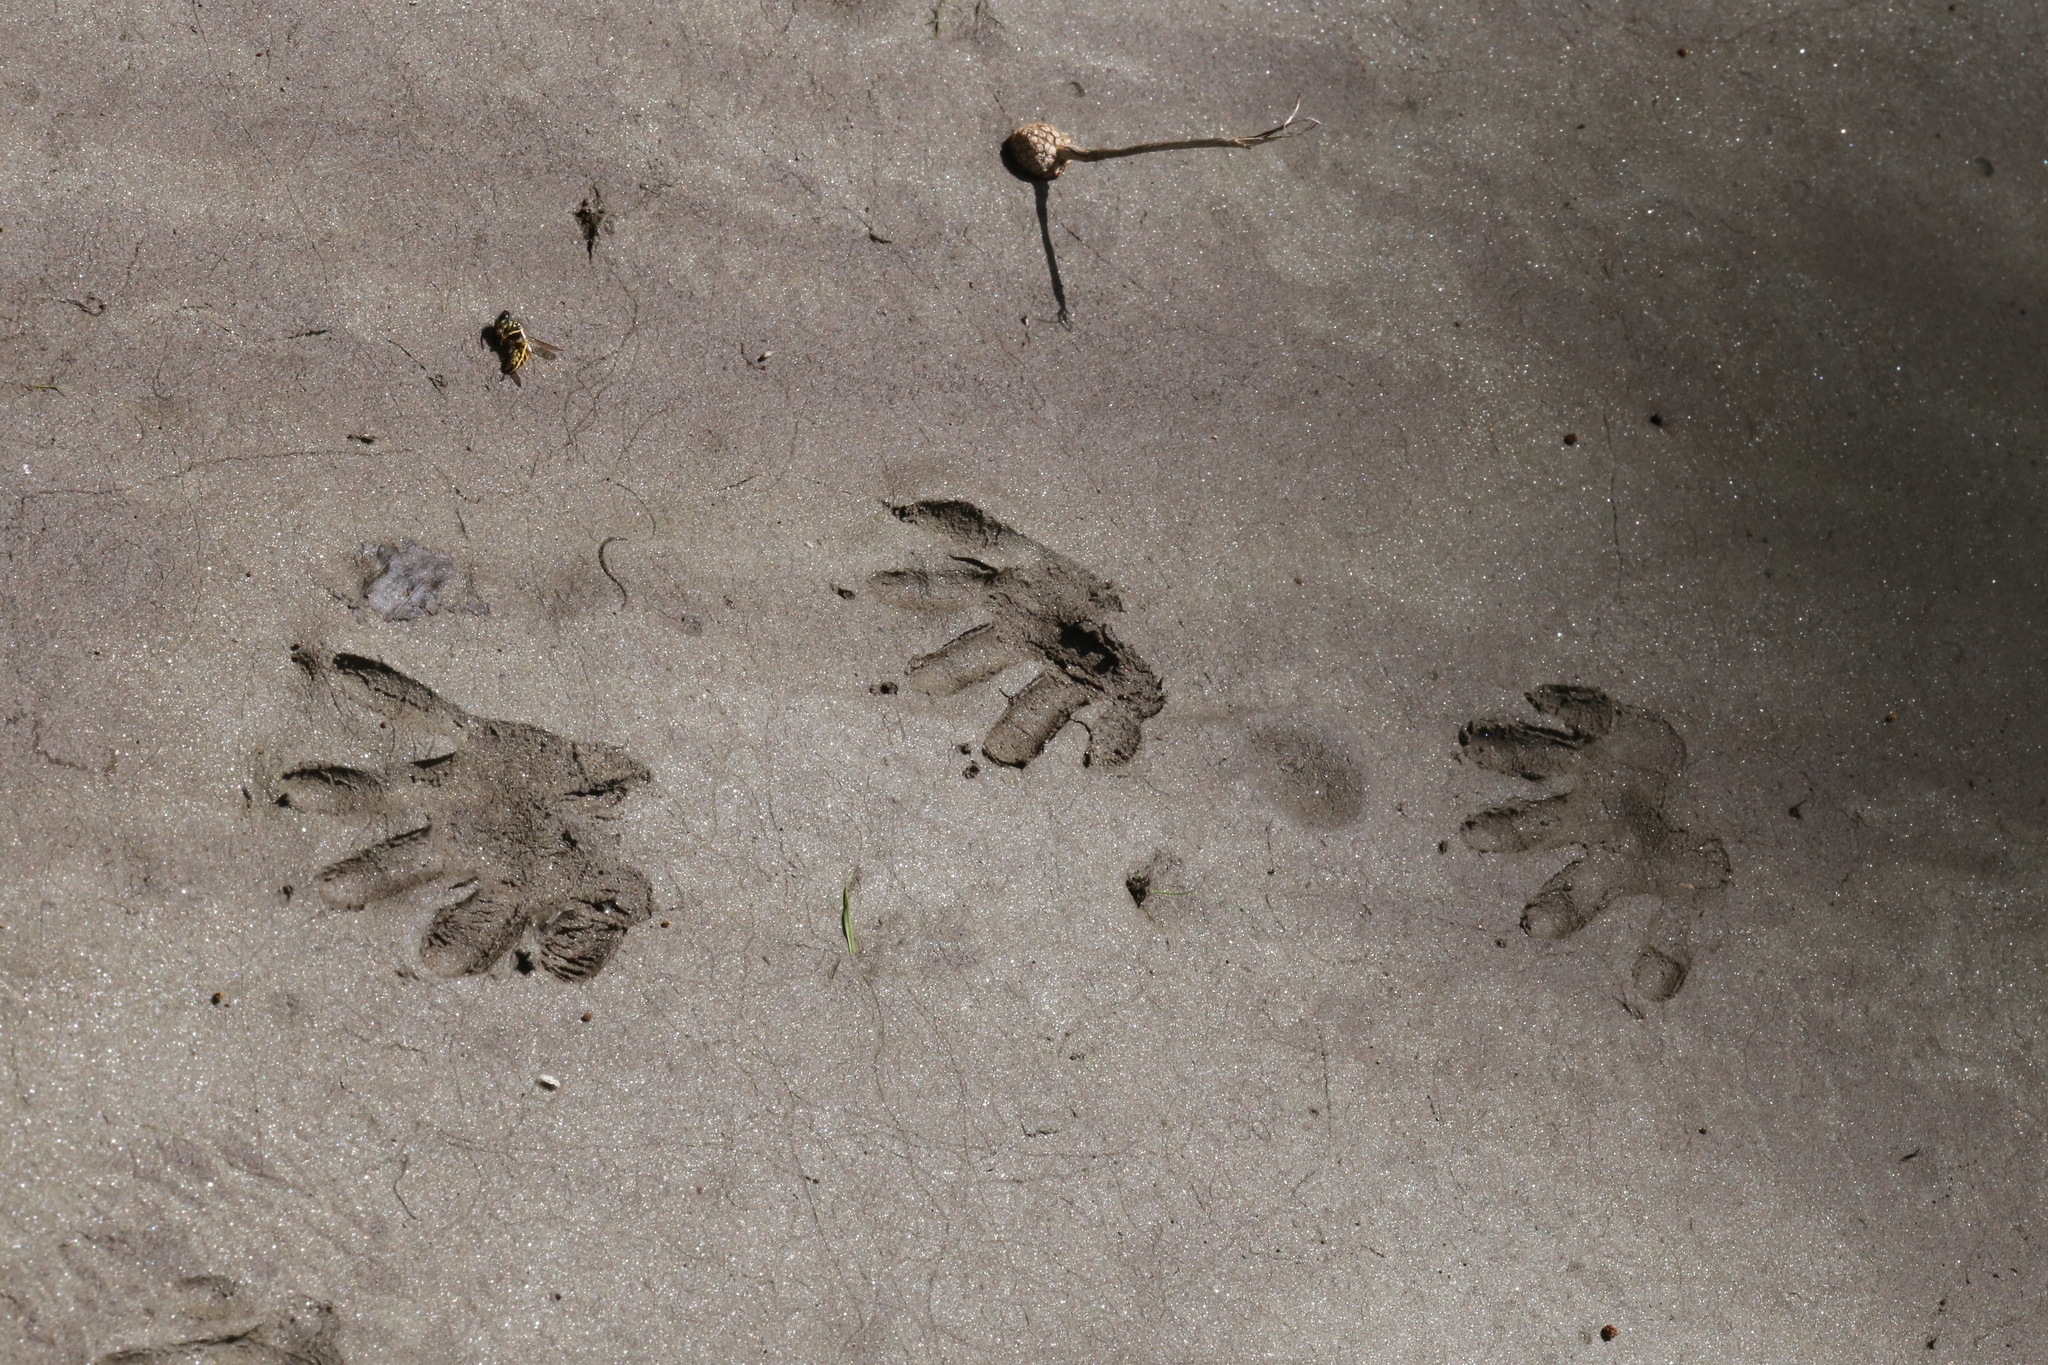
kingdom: Animalia
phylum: Chordata
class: Mammalia
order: Carnivora
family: Procyonidae
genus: Procyon
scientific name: Procyon lotor
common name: Raccoon
